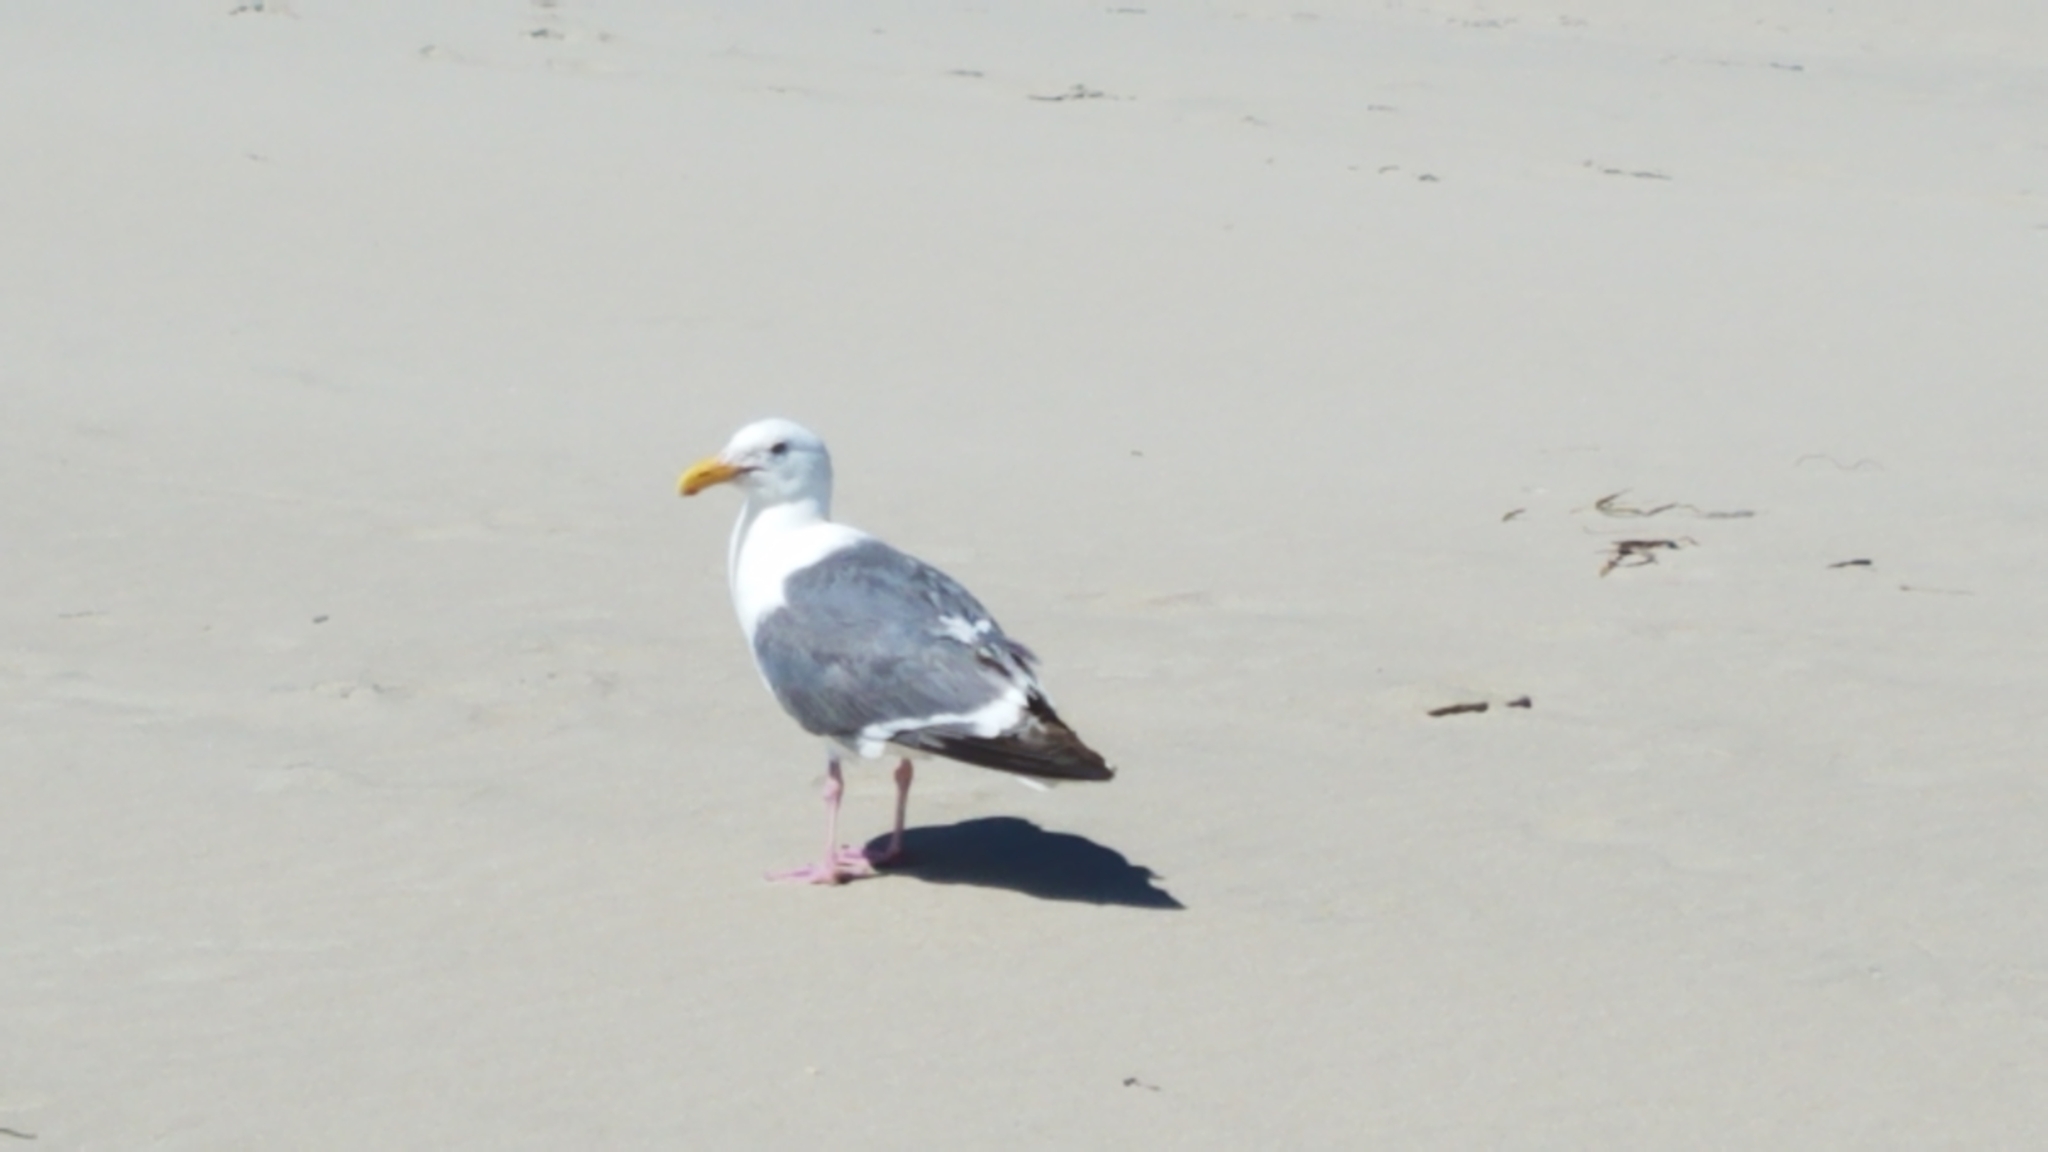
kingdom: Animalia
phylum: Chordata
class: Aves
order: Charadriiformes
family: Laridae
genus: Larus
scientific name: Larus occidentalis
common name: Western gull
